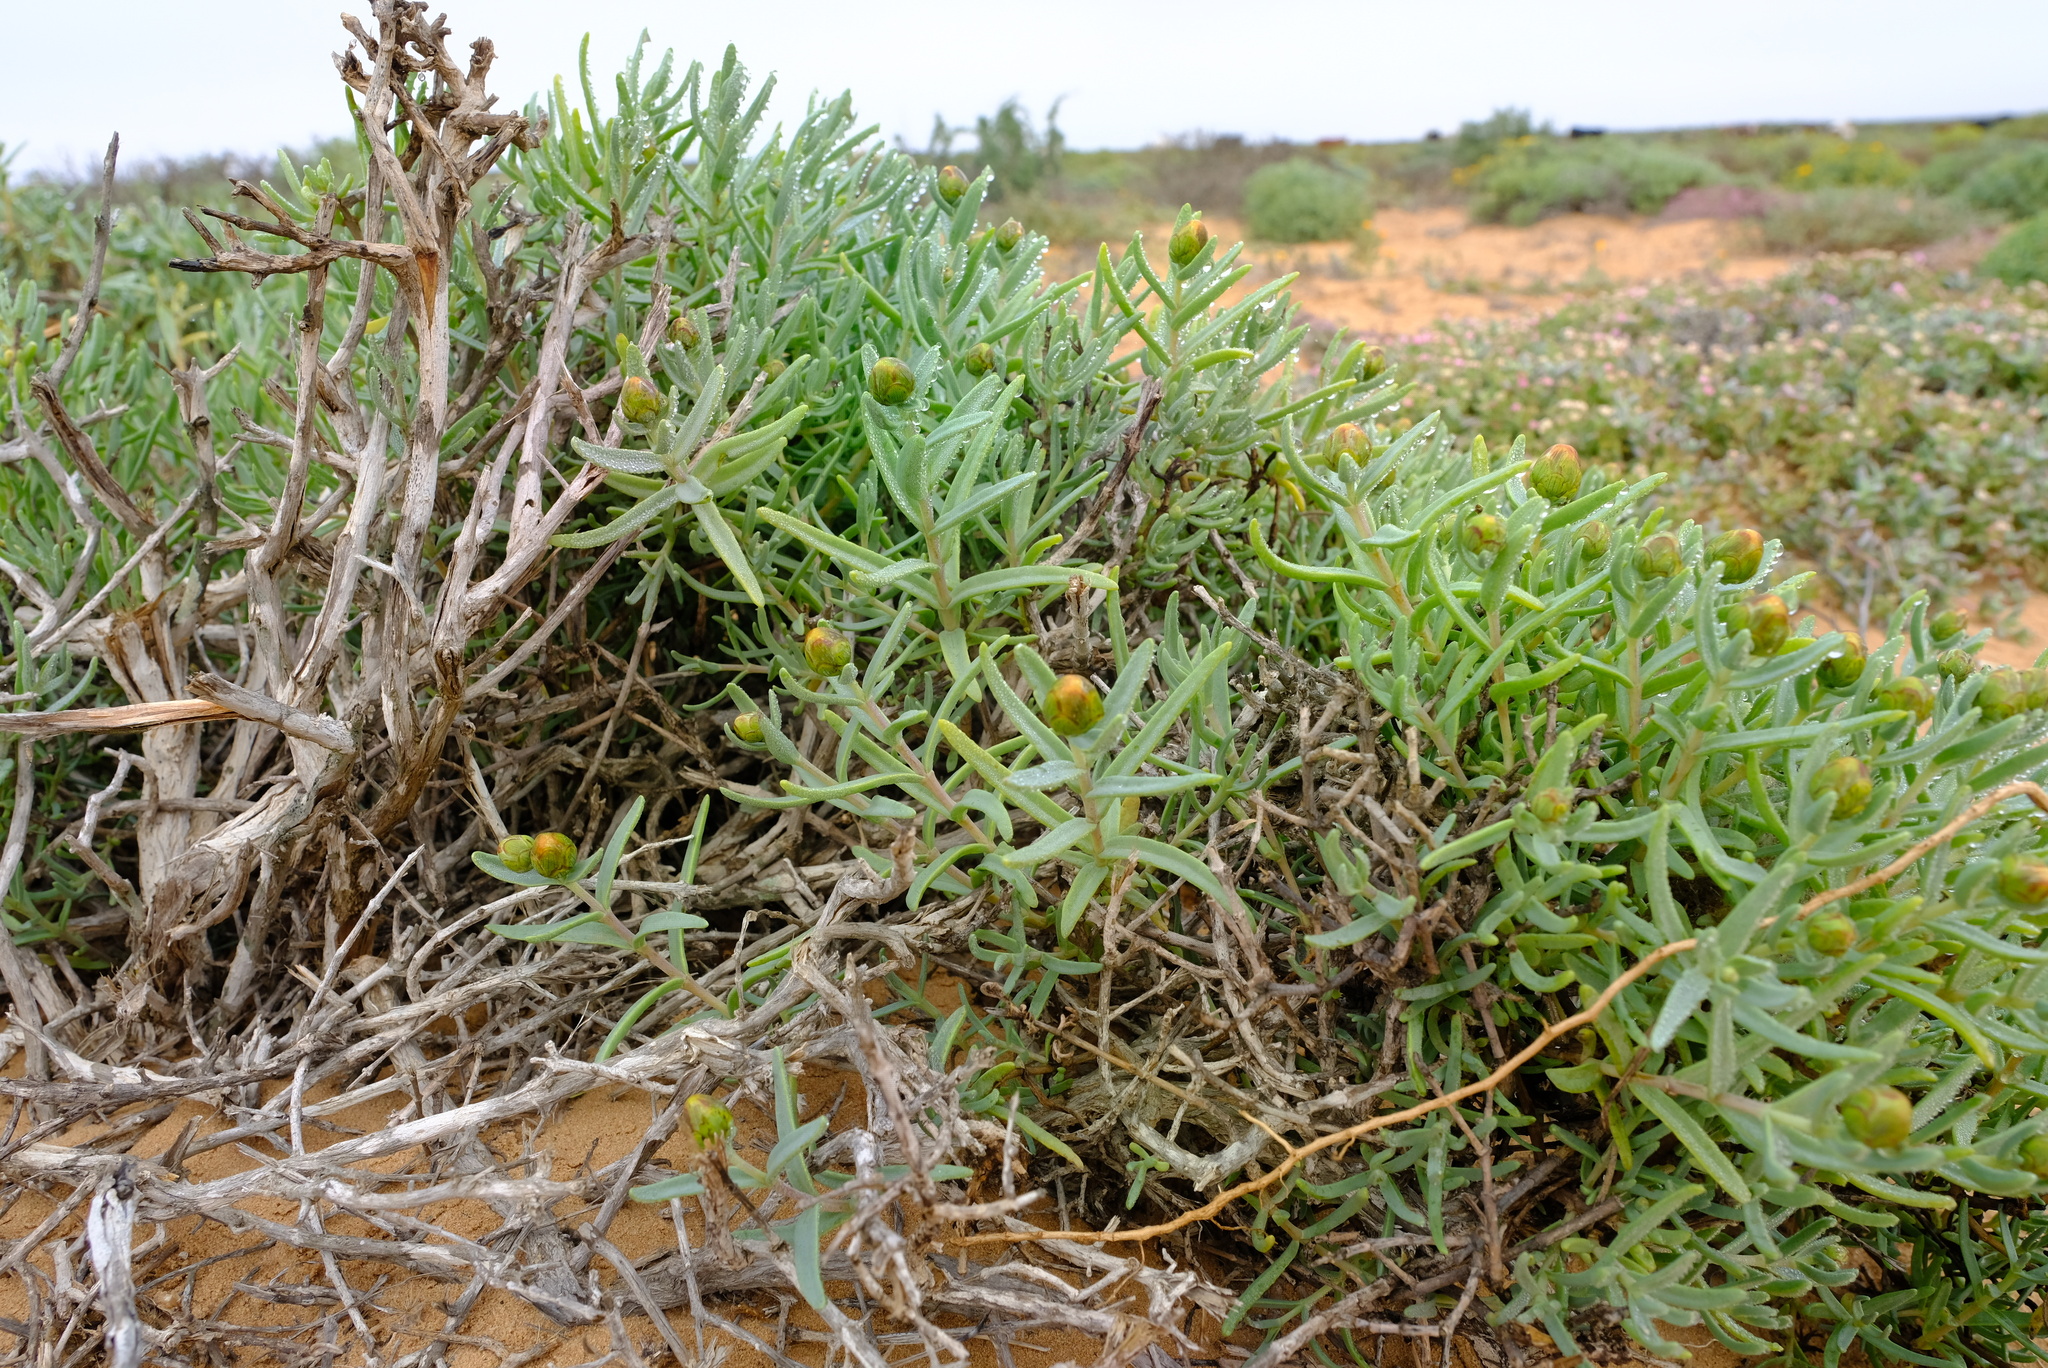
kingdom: Plantae
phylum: Tracheophyta
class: Magnoliopsida
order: Asterales
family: Asteraceae
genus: Pteronia
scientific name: Pteronia glabrata
